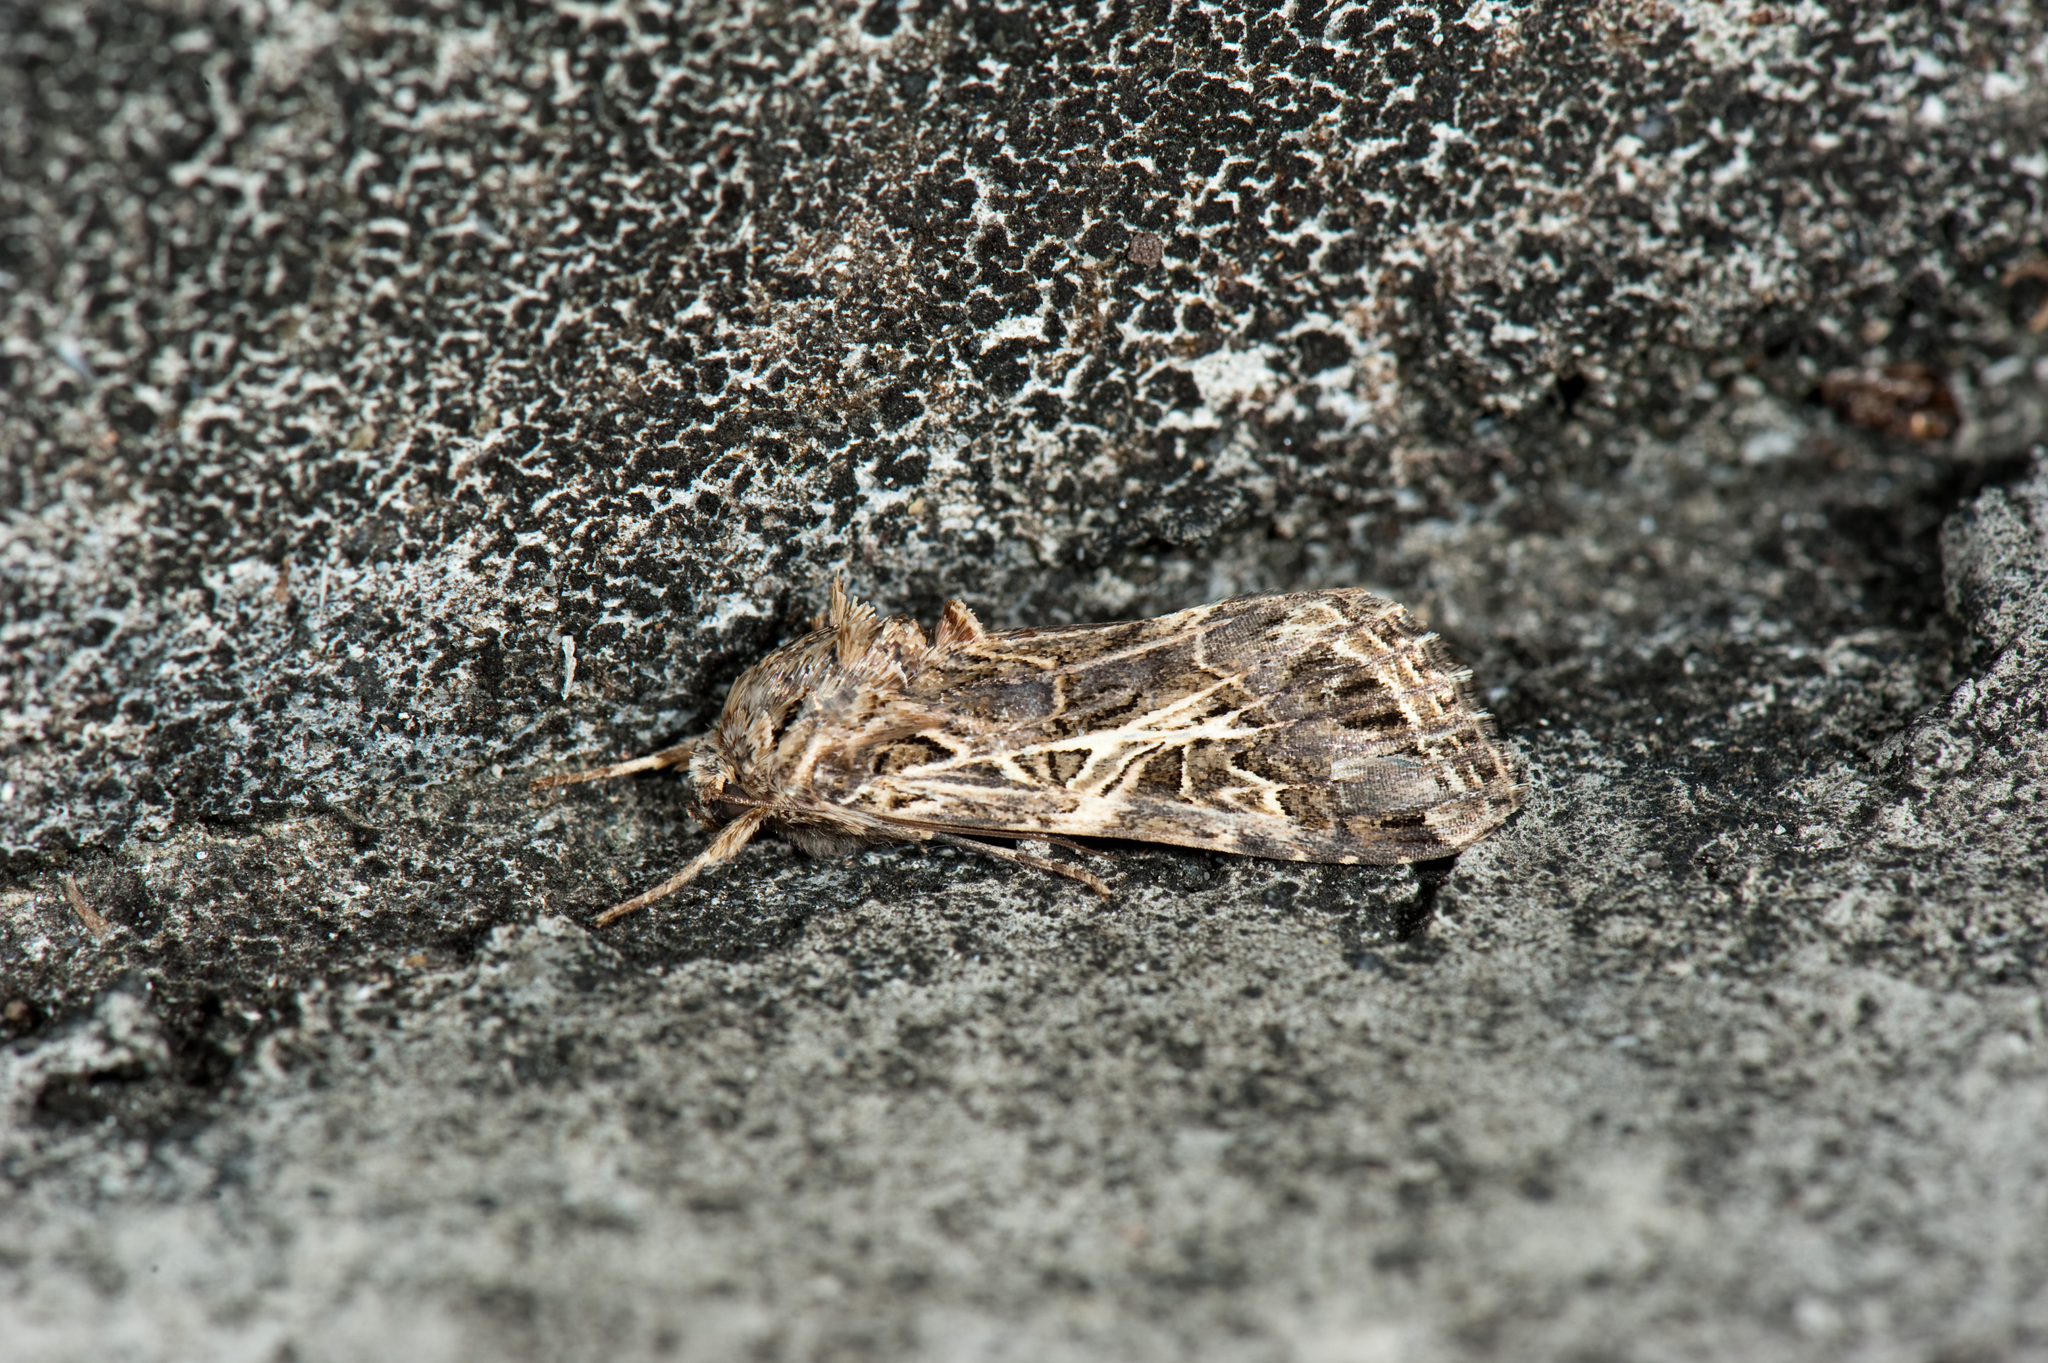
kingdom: Animalia
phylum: Arthropoda
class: Insecta
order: Lepidoptera
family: Noctuidae
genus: Spodoptera
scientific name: Spodoptera litura
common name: Asian cotton leafworm
